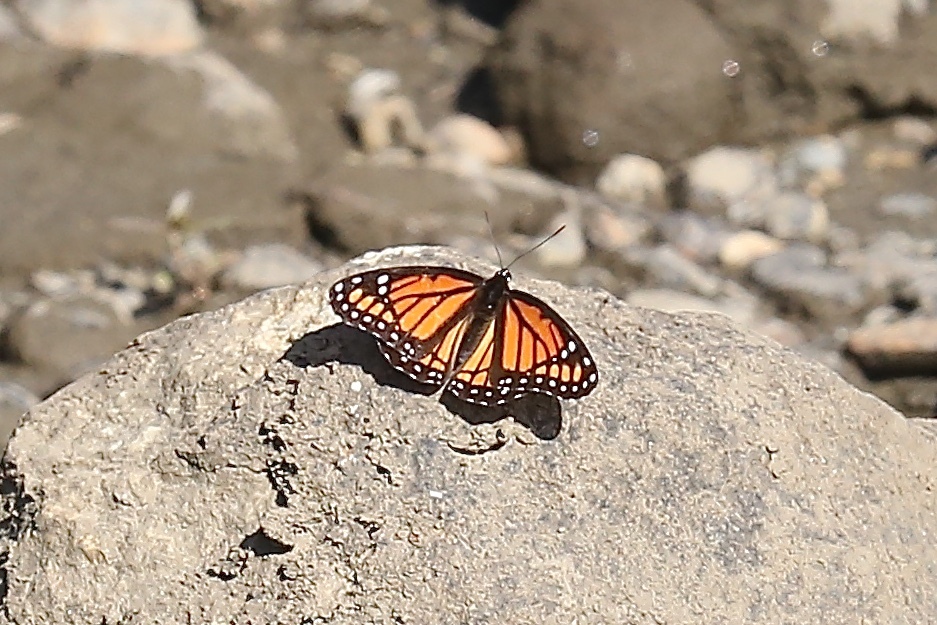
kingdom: Animalia
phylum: Arthropoda
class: Insecta
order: Lepidoptera
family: Nymphalidae
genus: Limenitis
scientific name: Limenitis archippus
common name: Viceroy
